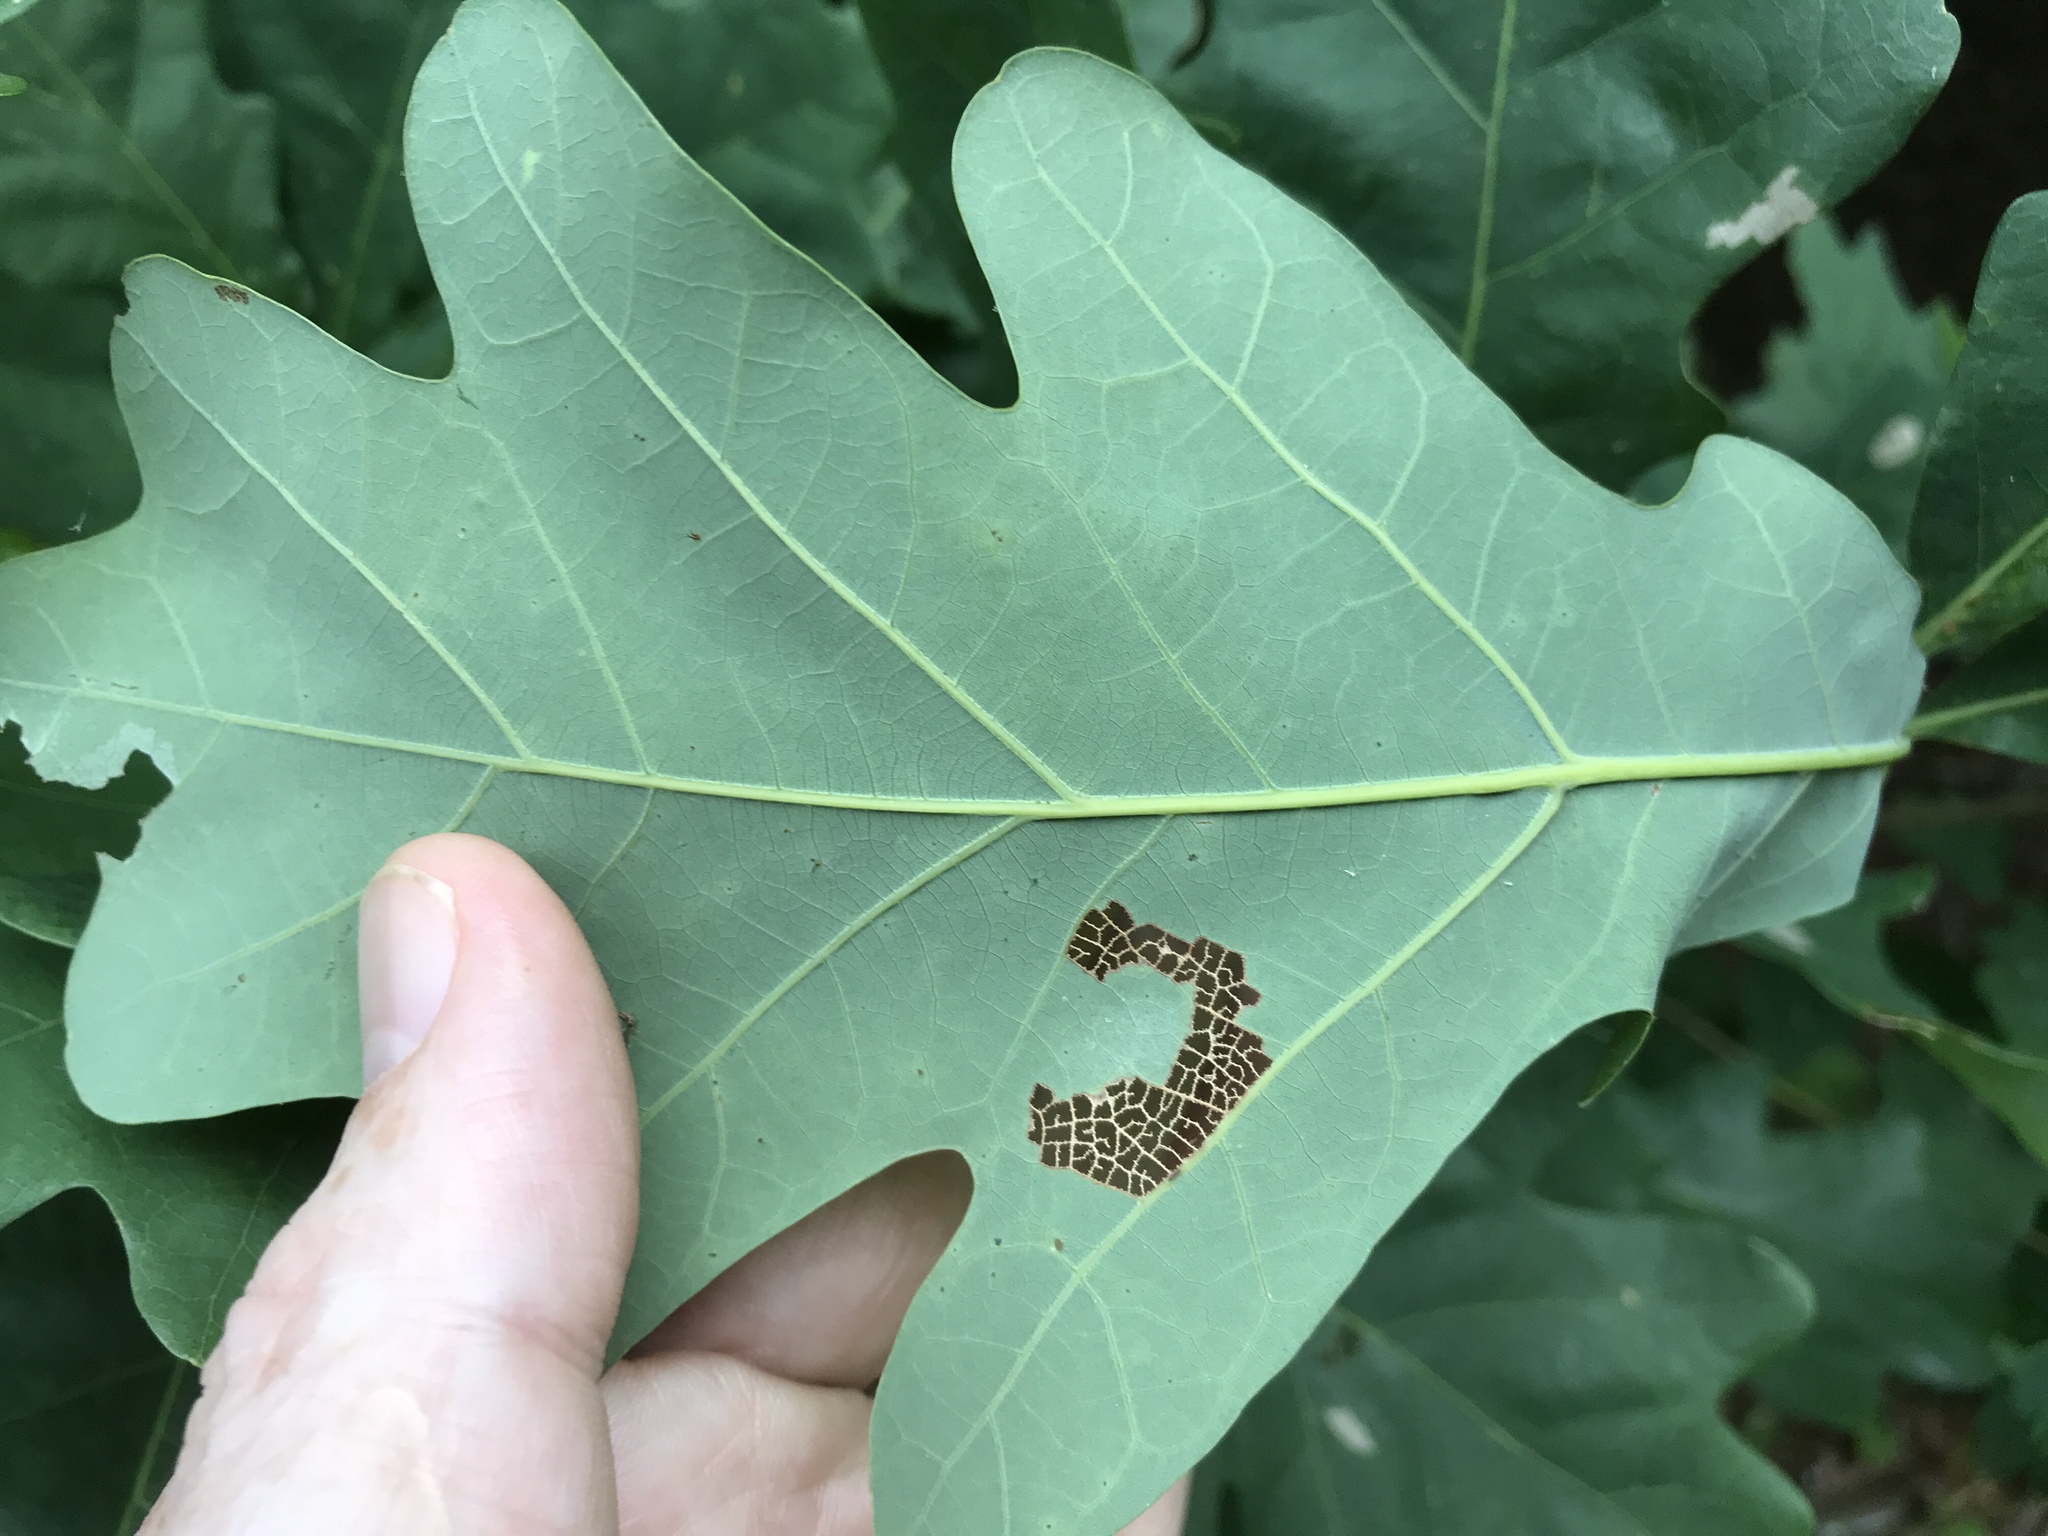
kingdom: Plantae
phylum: Tracheophyta
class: Magnoliopsida
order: Fagales
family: Fagaceae
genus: Quercus
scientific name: Quercus alba
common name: White oak
